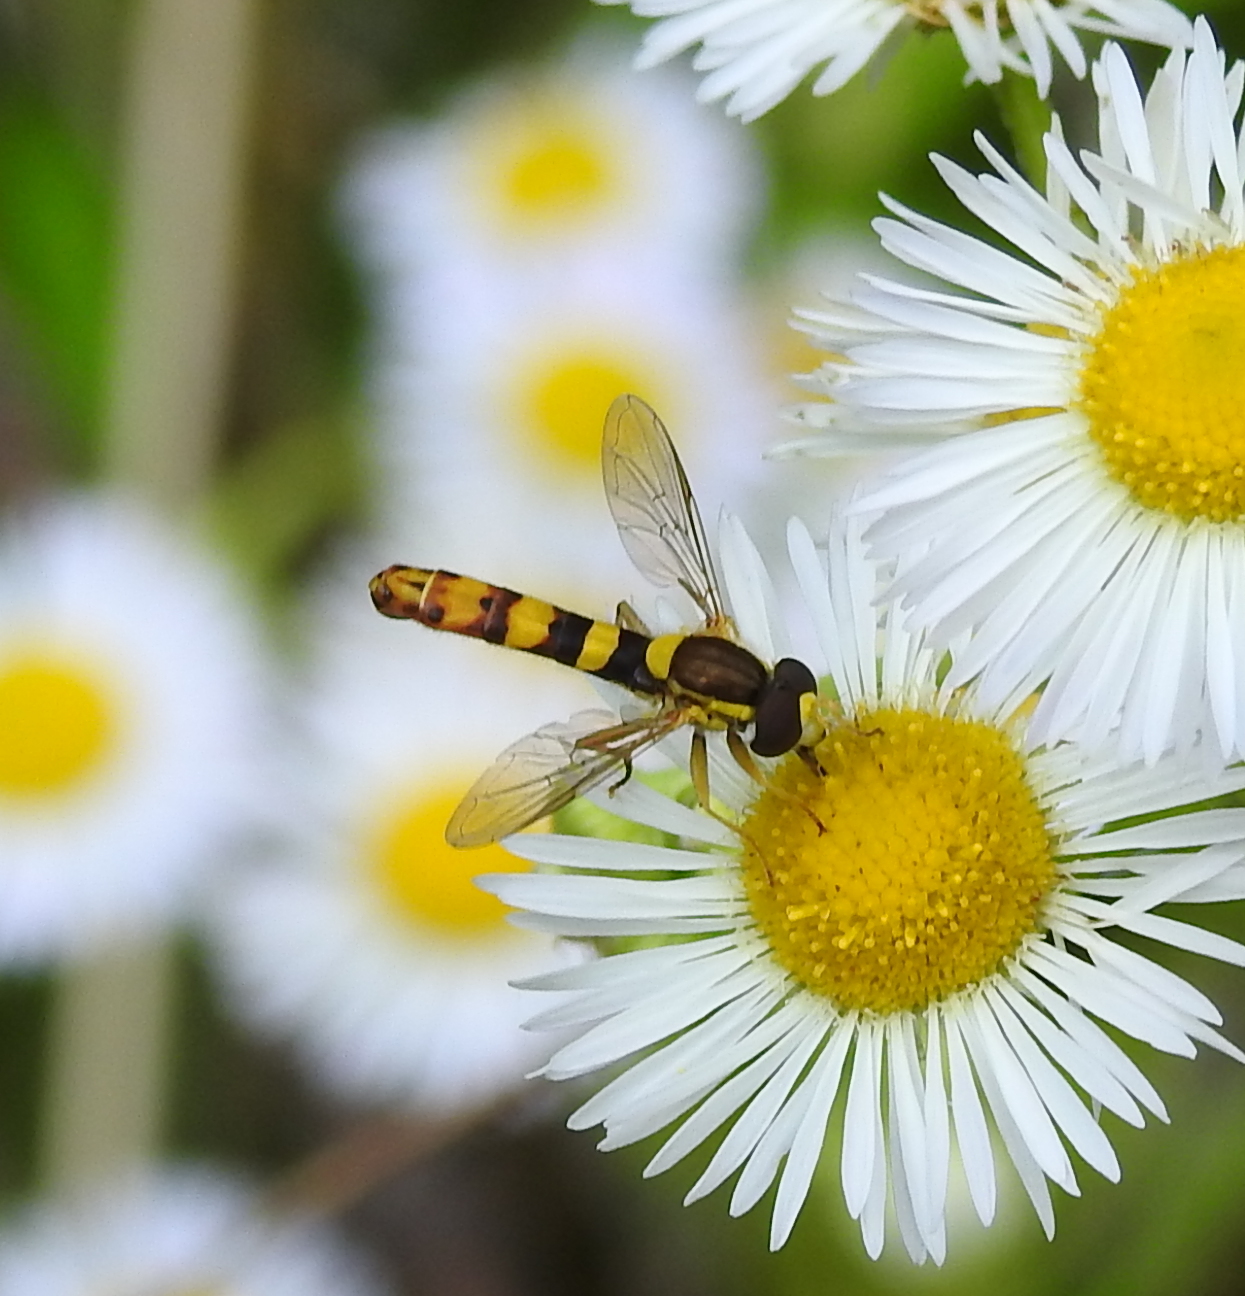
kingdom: Animalia
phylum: Arthropoda
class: Insecta
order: Diptera
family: Syrphidae
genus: Sphaerophoria
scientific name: Sphaerophoria scripta
